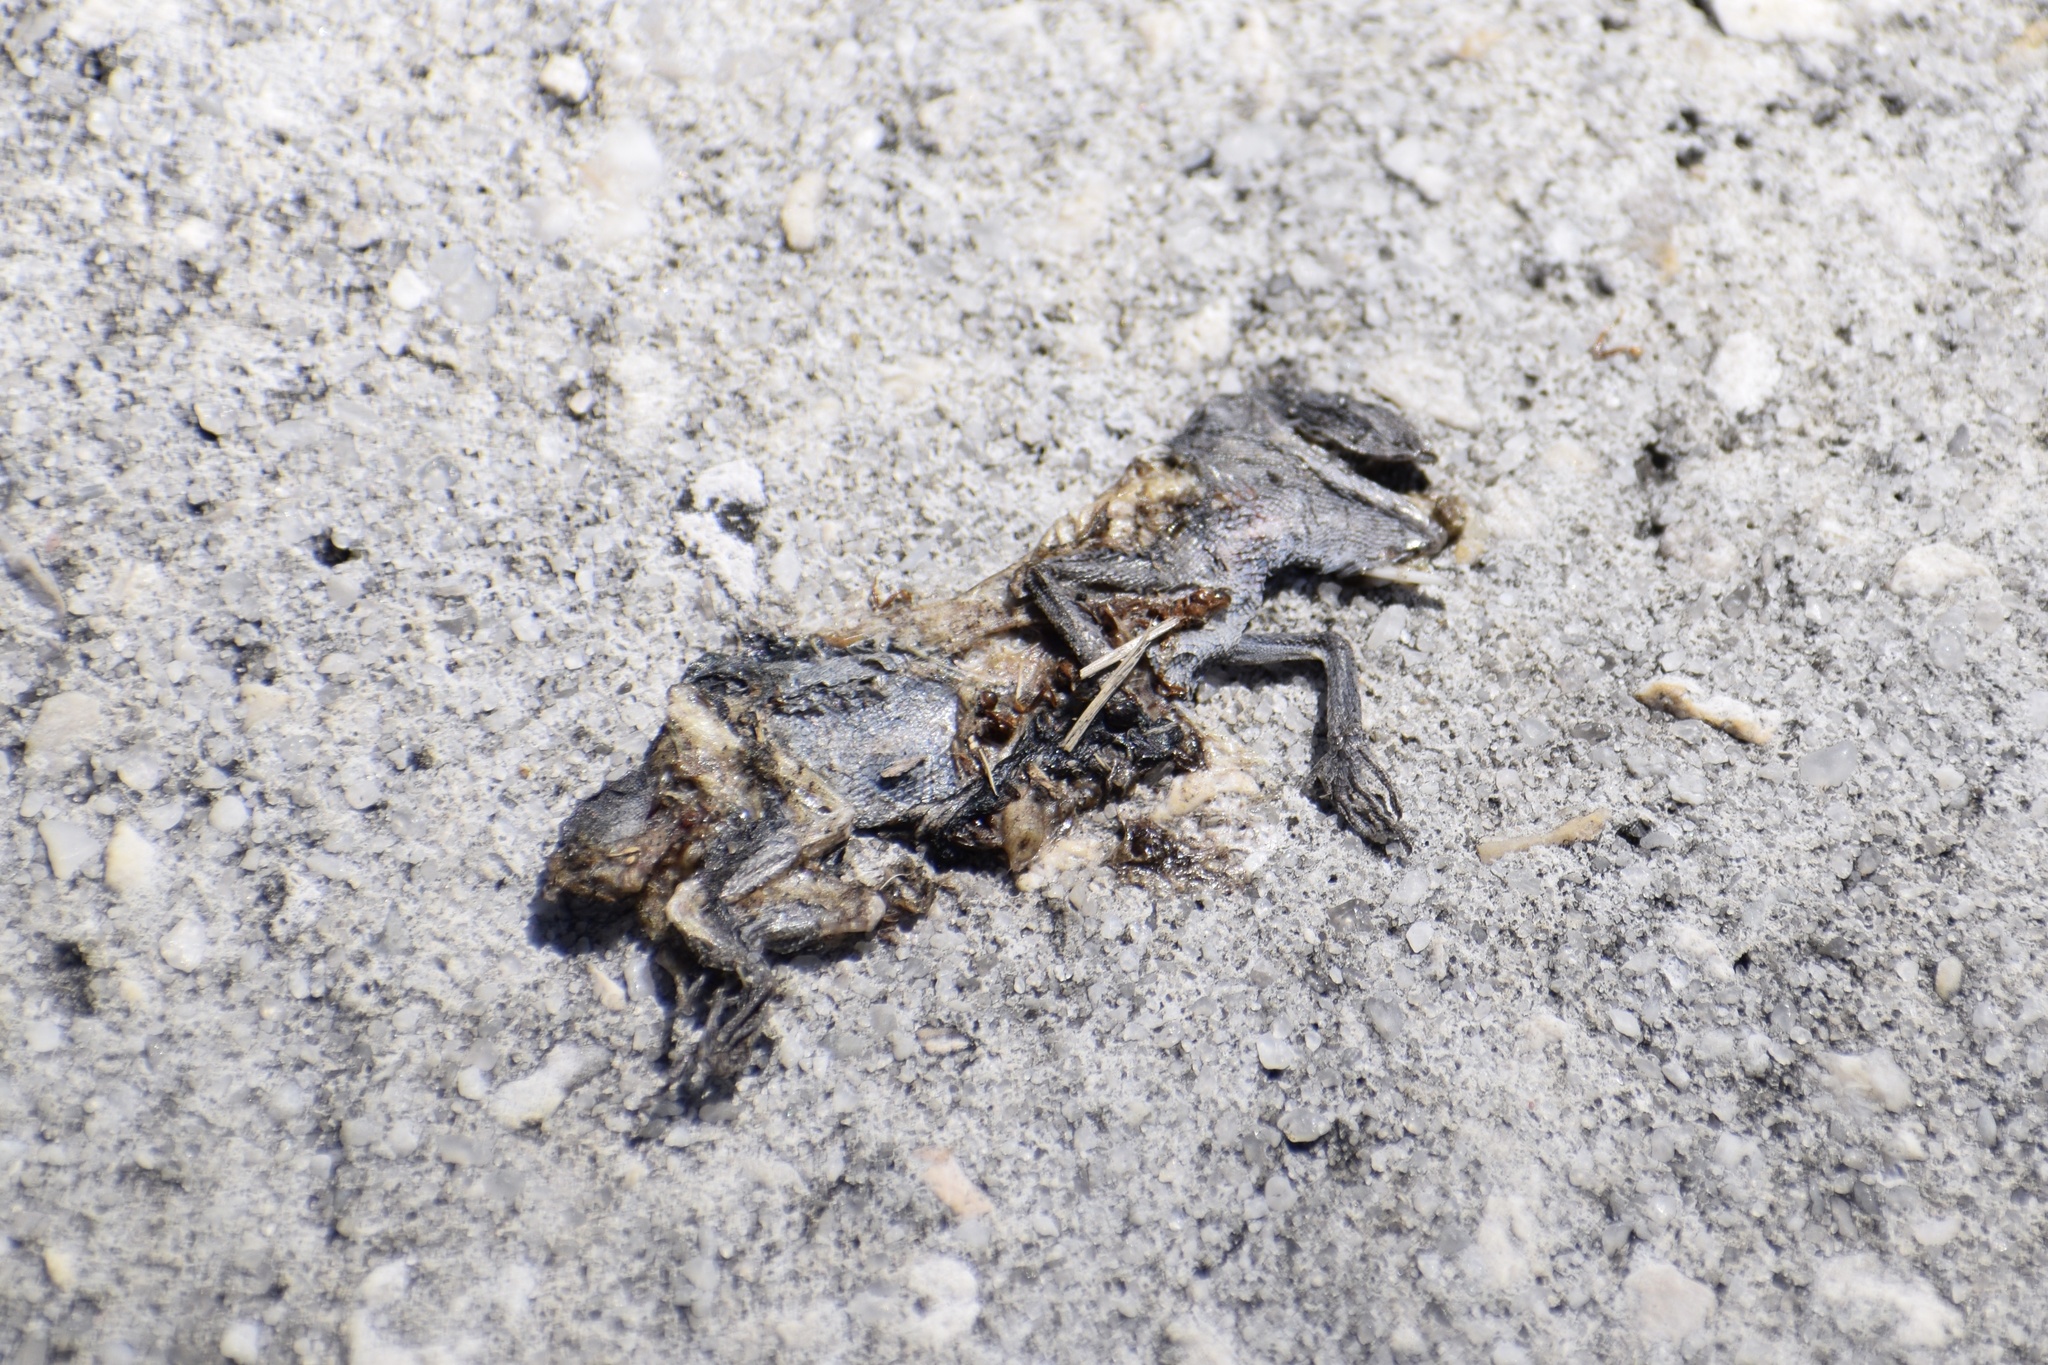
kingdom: Animalia
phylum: Chordata
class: Squamata
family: Leiocephalidae
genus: Leiocephalus
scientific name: Leiocephalus carinatus
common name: Northern curly-tailed lizard
